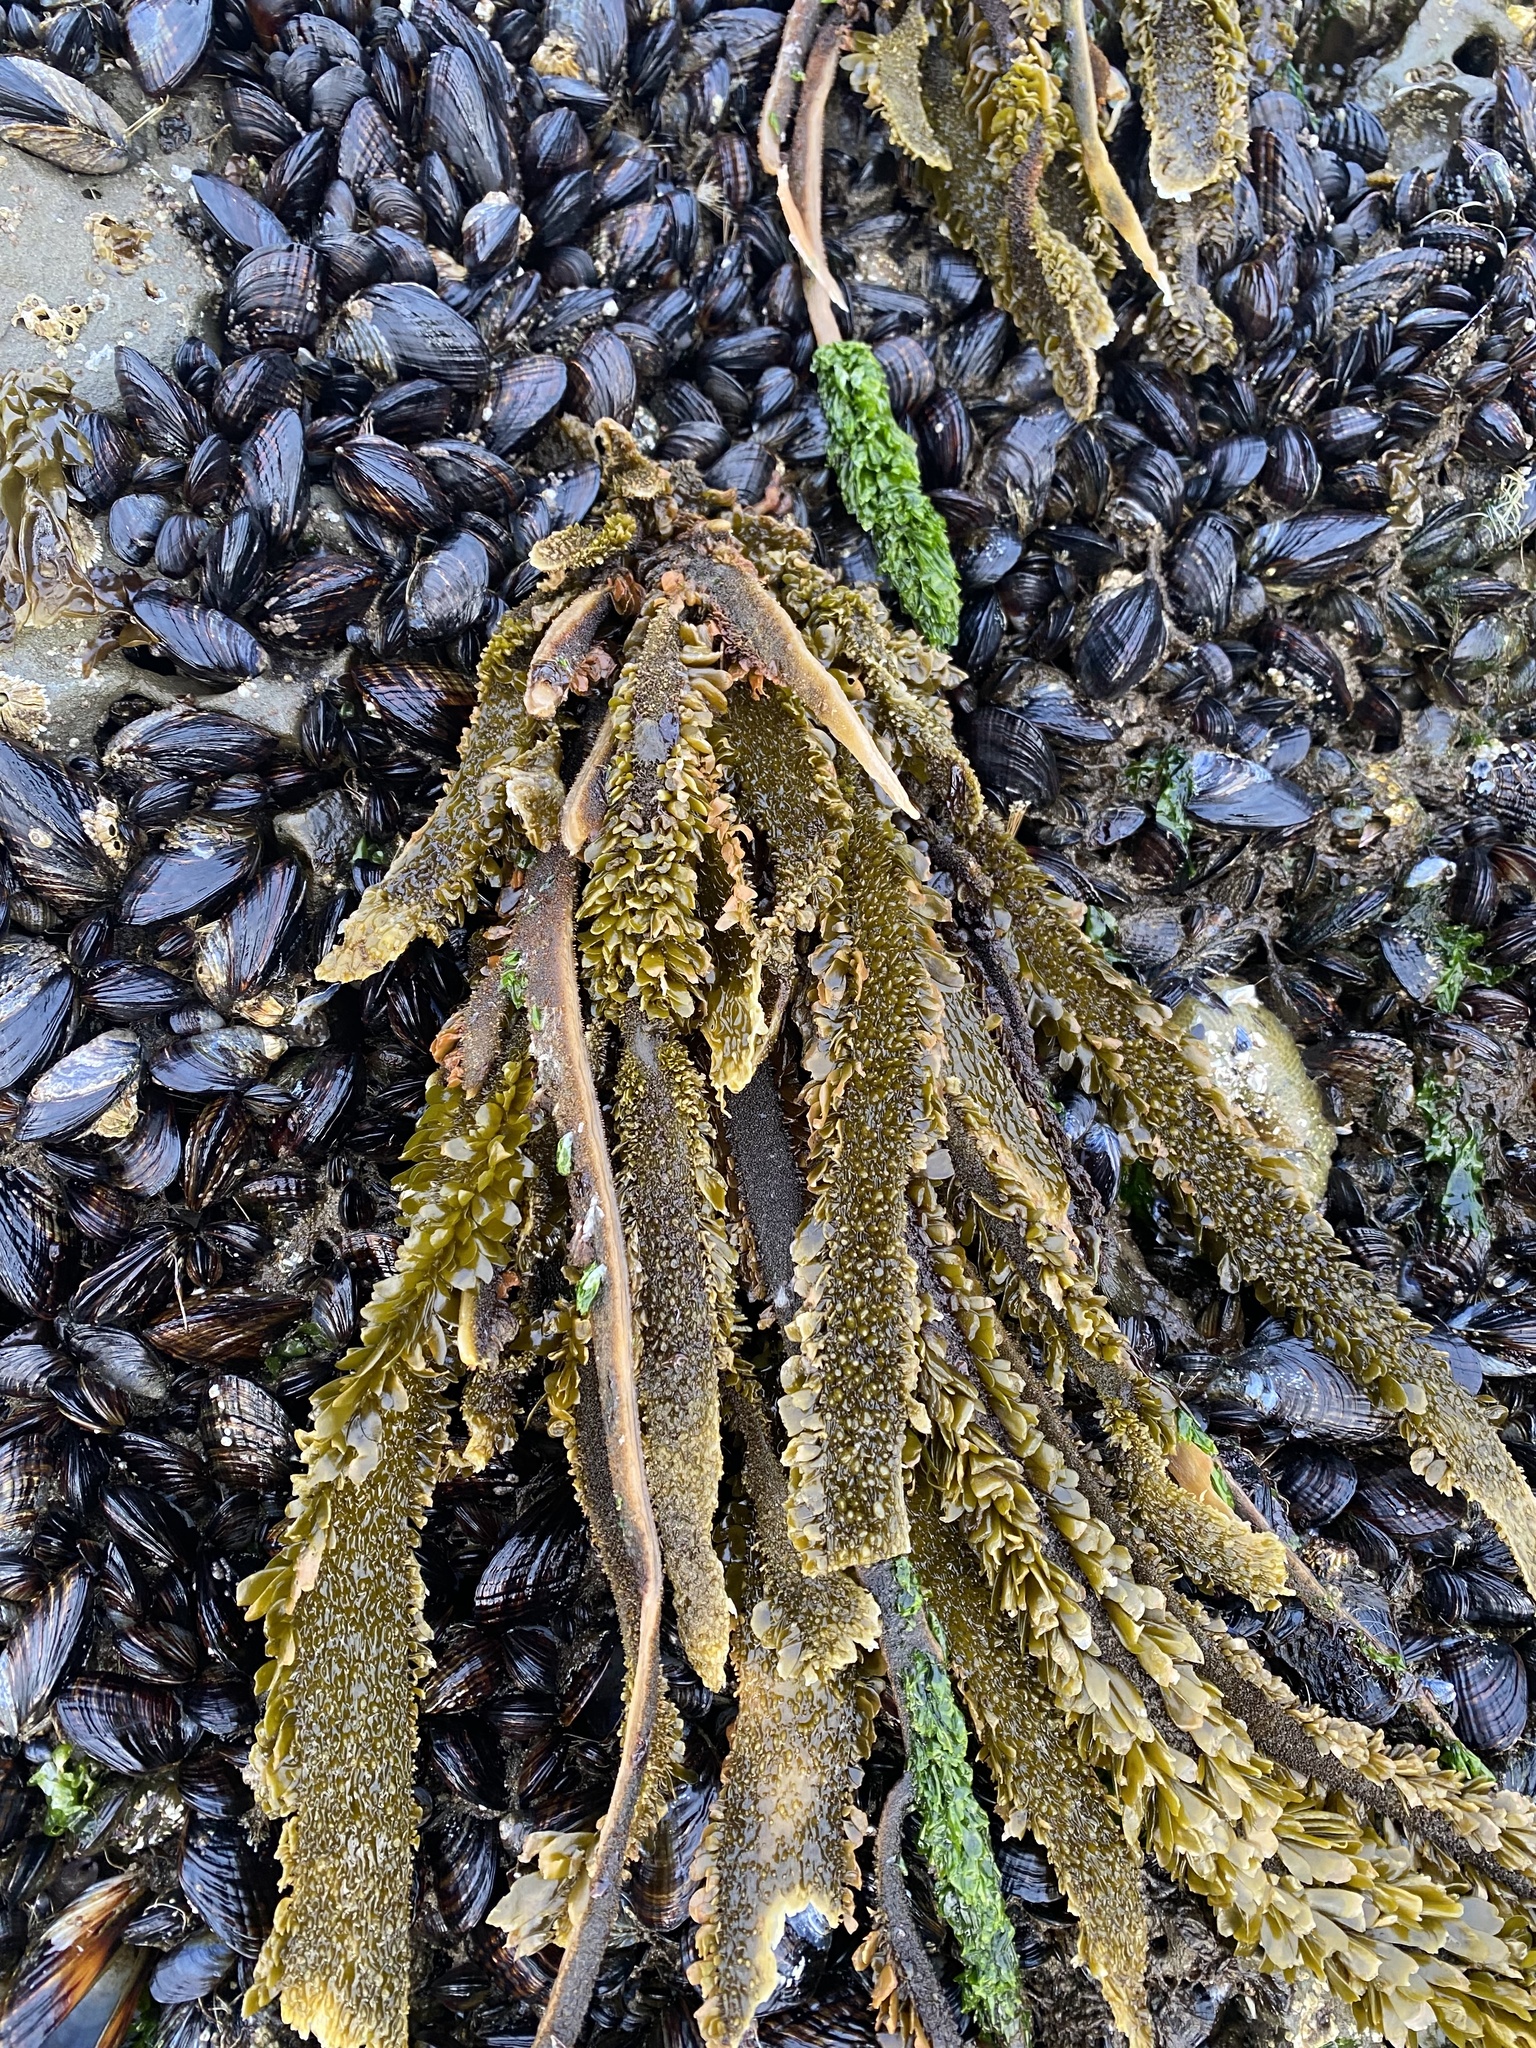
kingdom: Chromista
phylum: Ochrophyta
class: Phaeophyceae
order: Laminariales
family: Lessoniaceae
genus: Egregia
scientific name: Egregia menziesii
